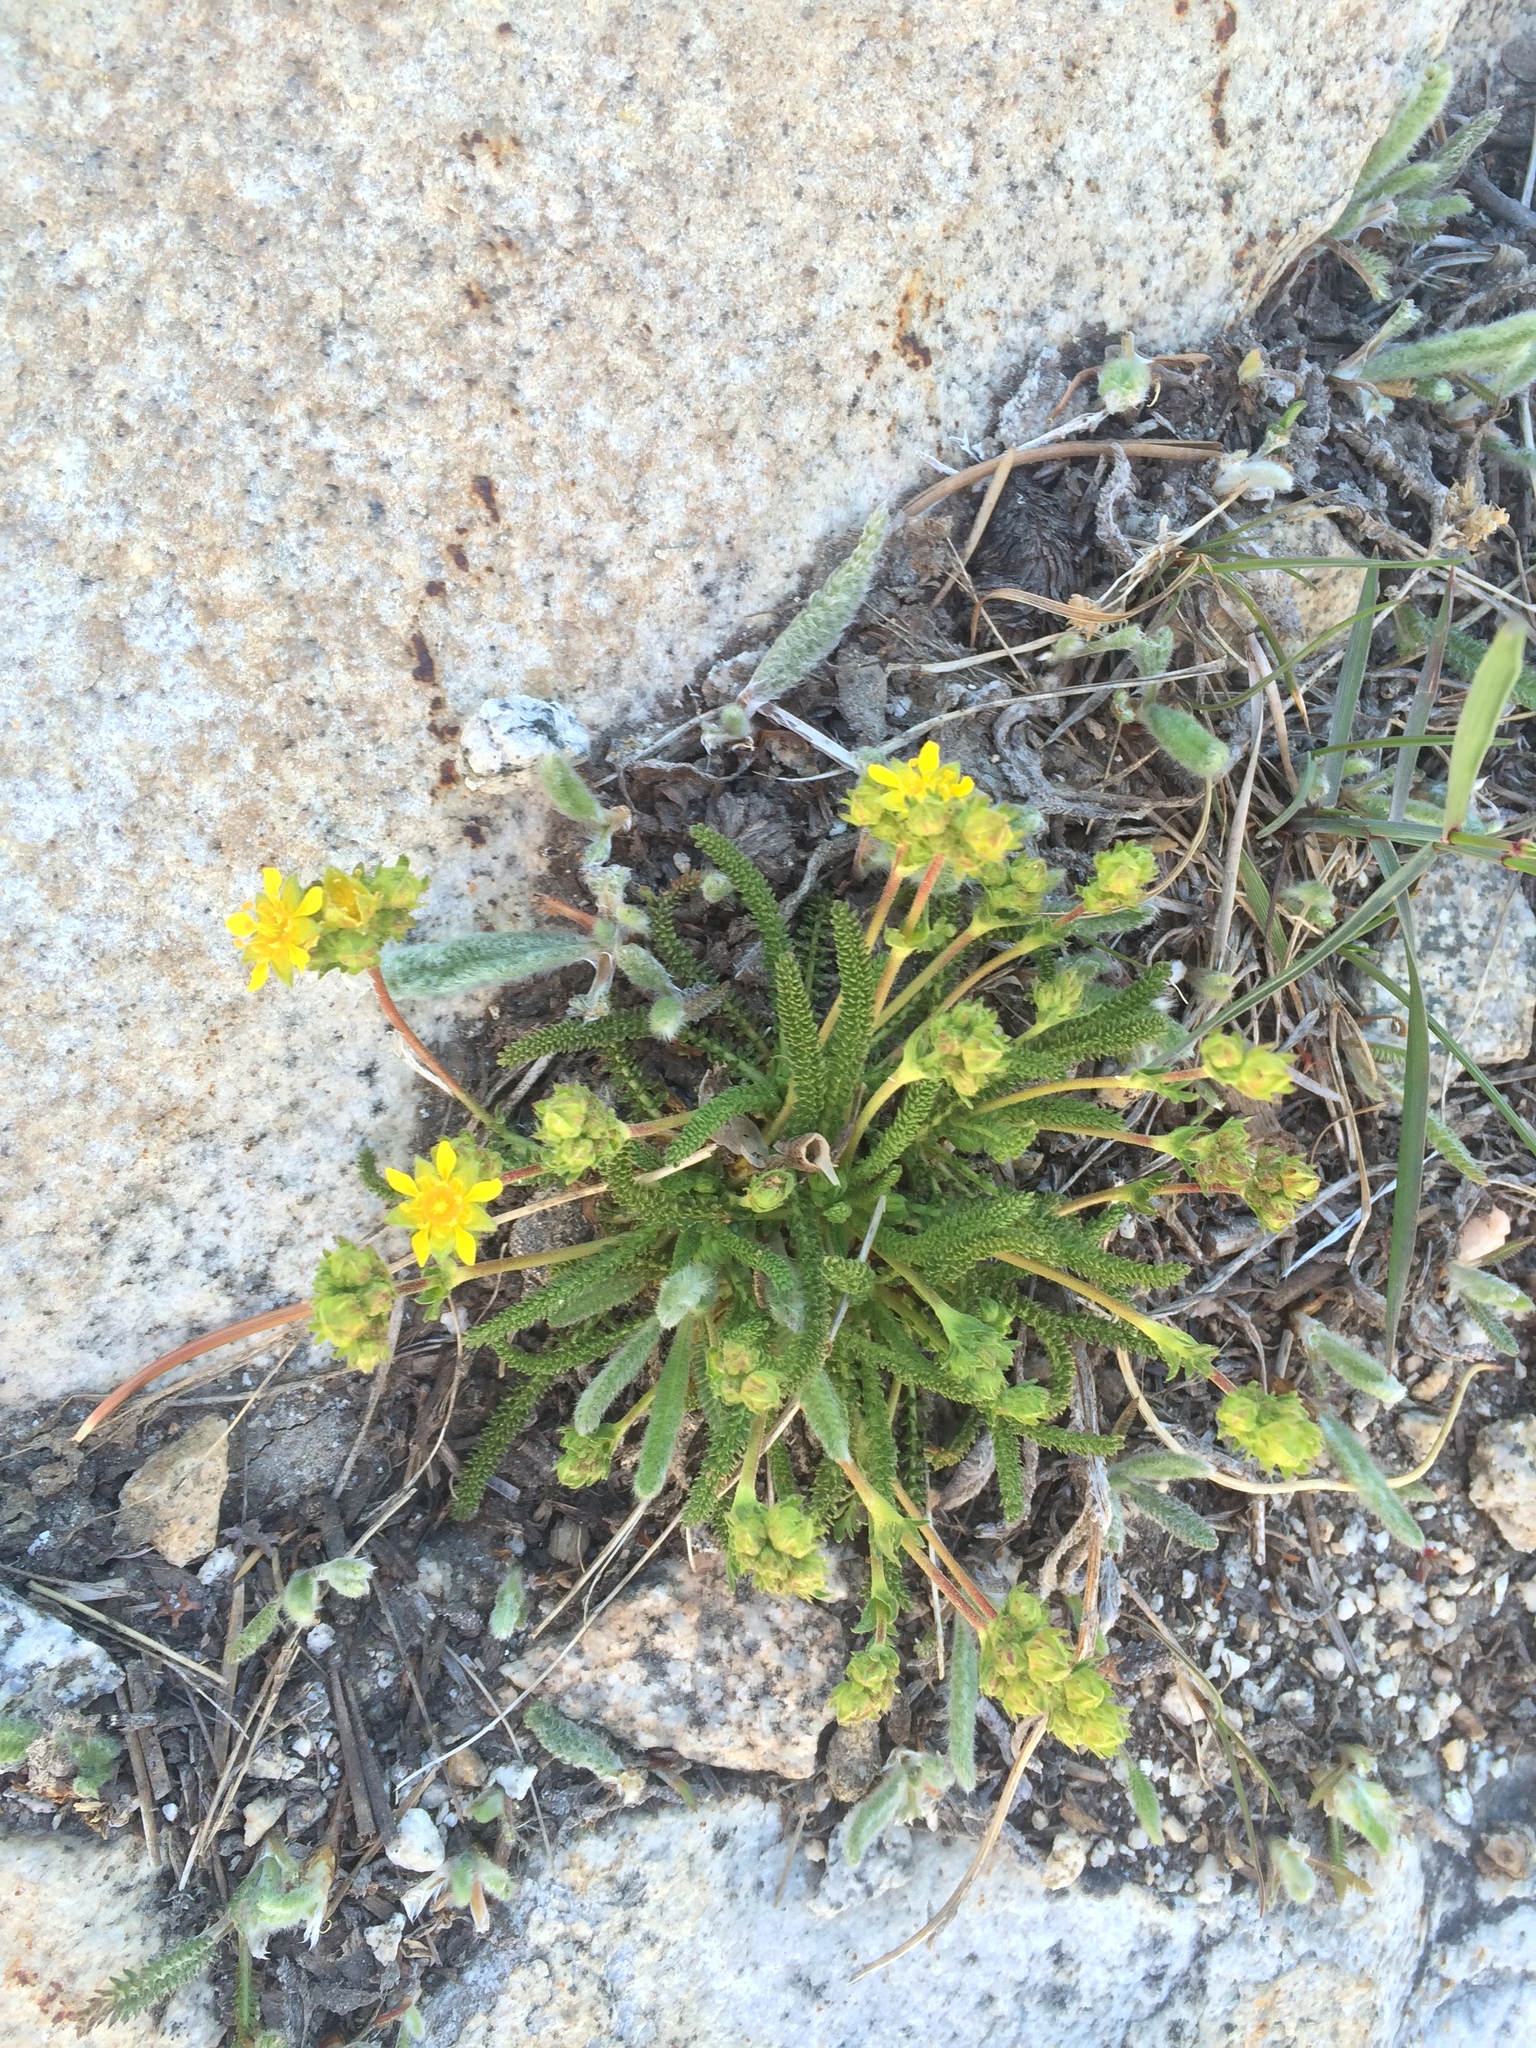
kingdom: Plantae
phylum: Tracheophyta
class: Magnoliopsida
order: Rosales
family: Rosaceae
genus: Potentilla
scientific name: Potentilla
